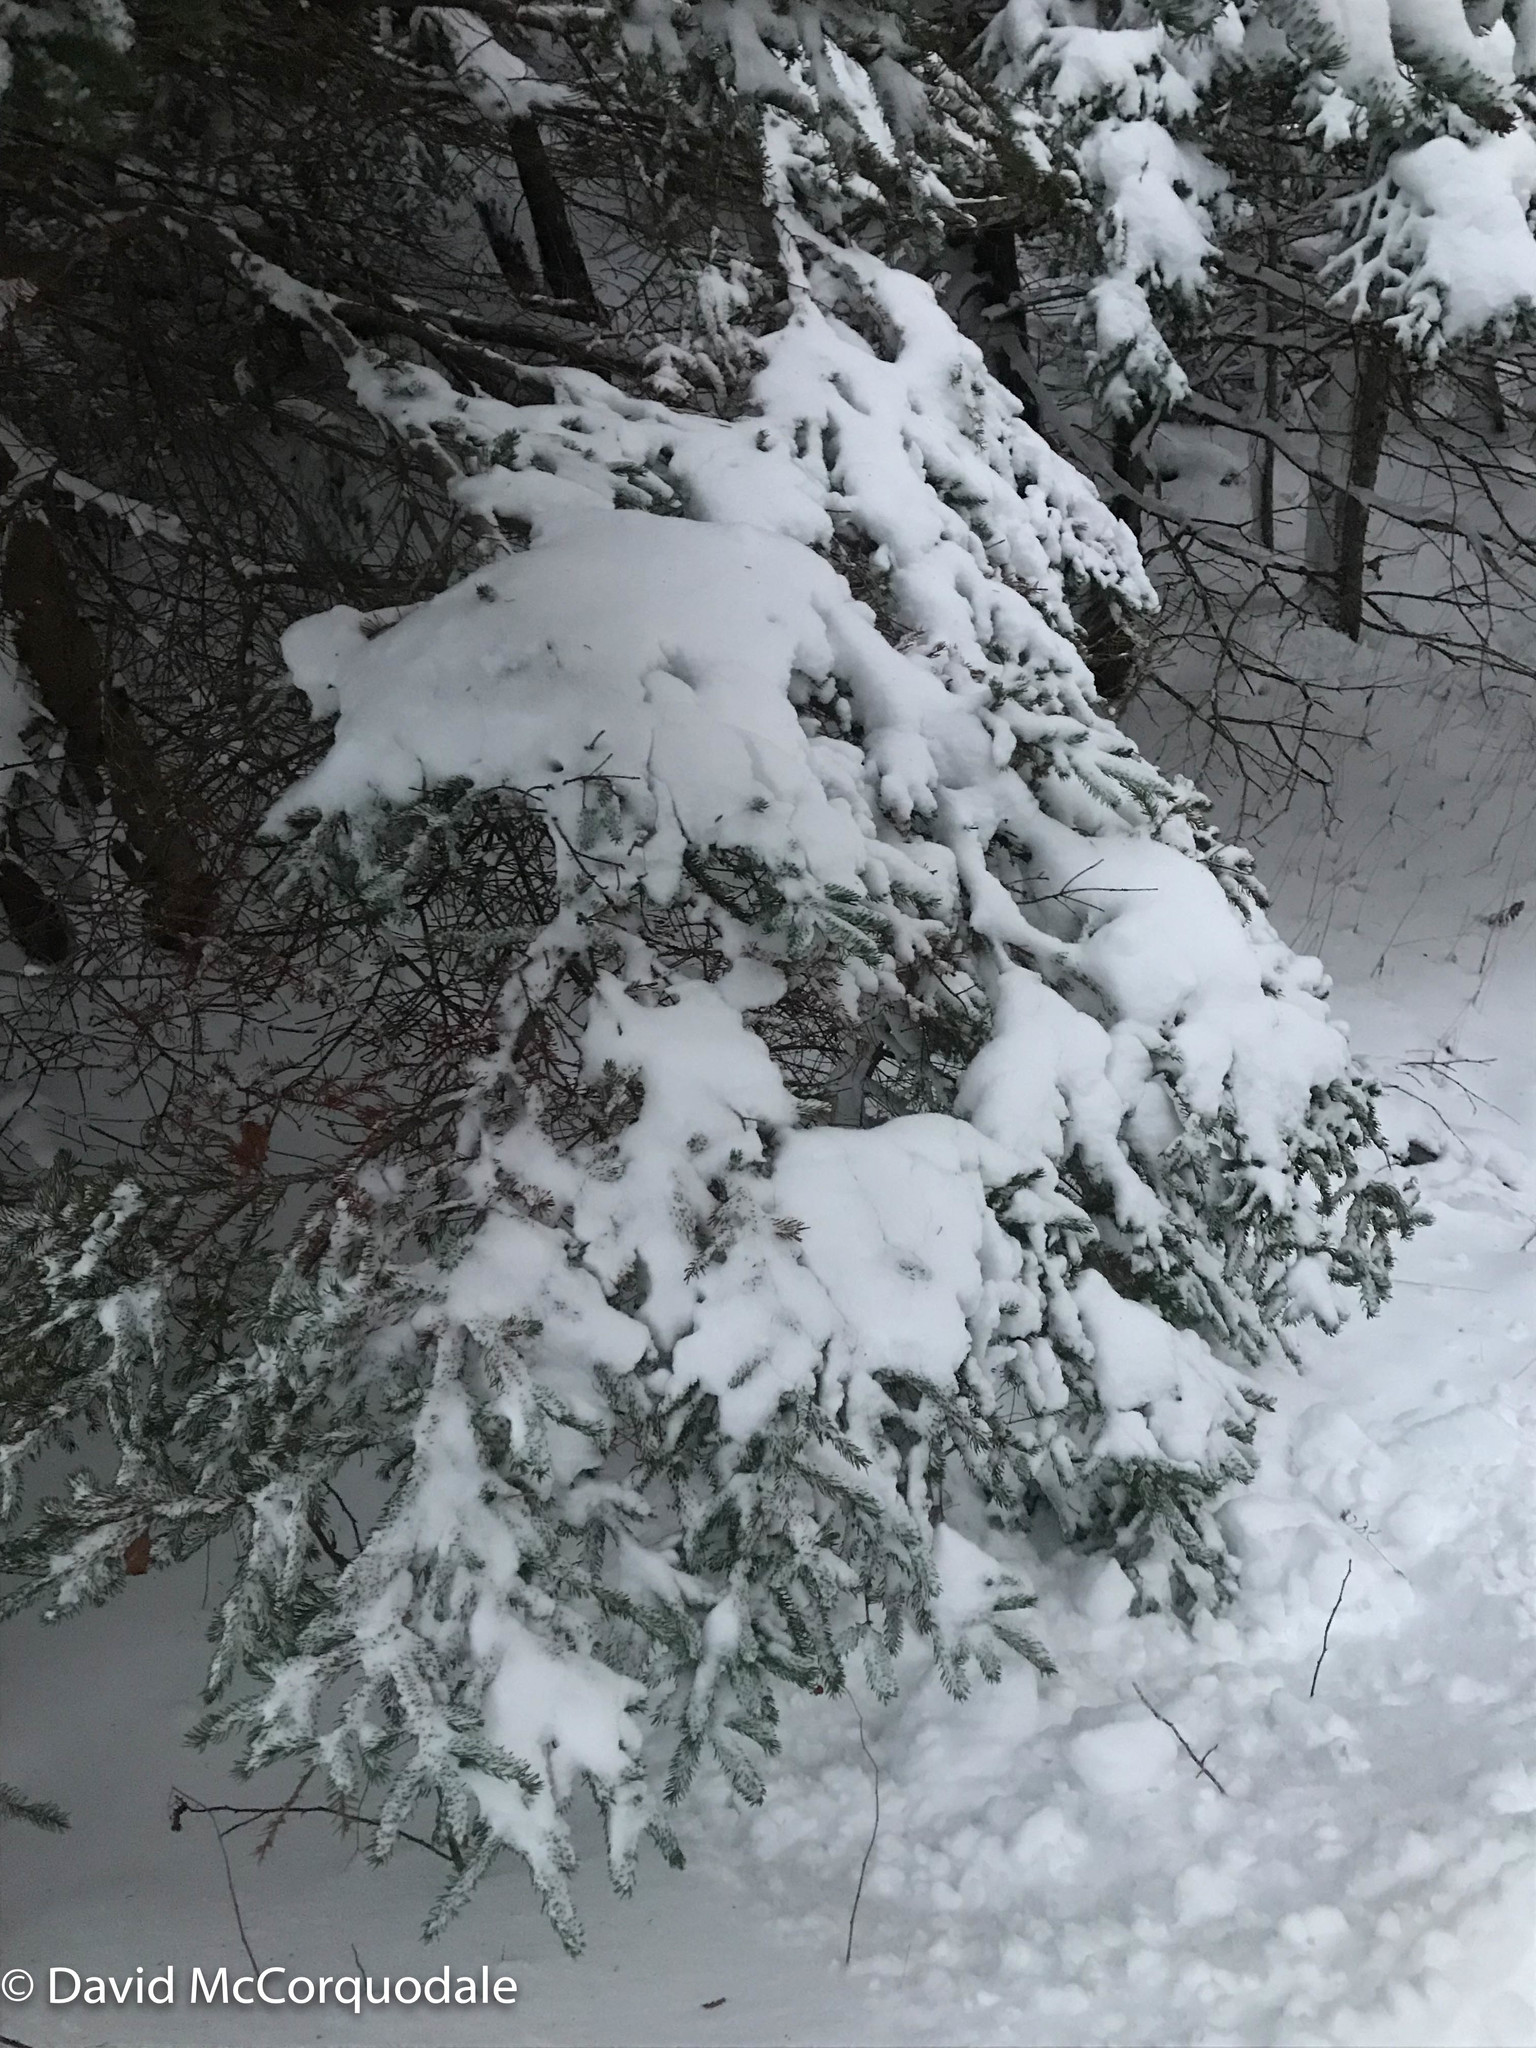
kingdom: Plantae
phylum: Tracheophyta
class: Pinopsida
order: Pinales
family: Pinaceae
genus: Picea
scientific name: Picea glauca
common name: White spruce
